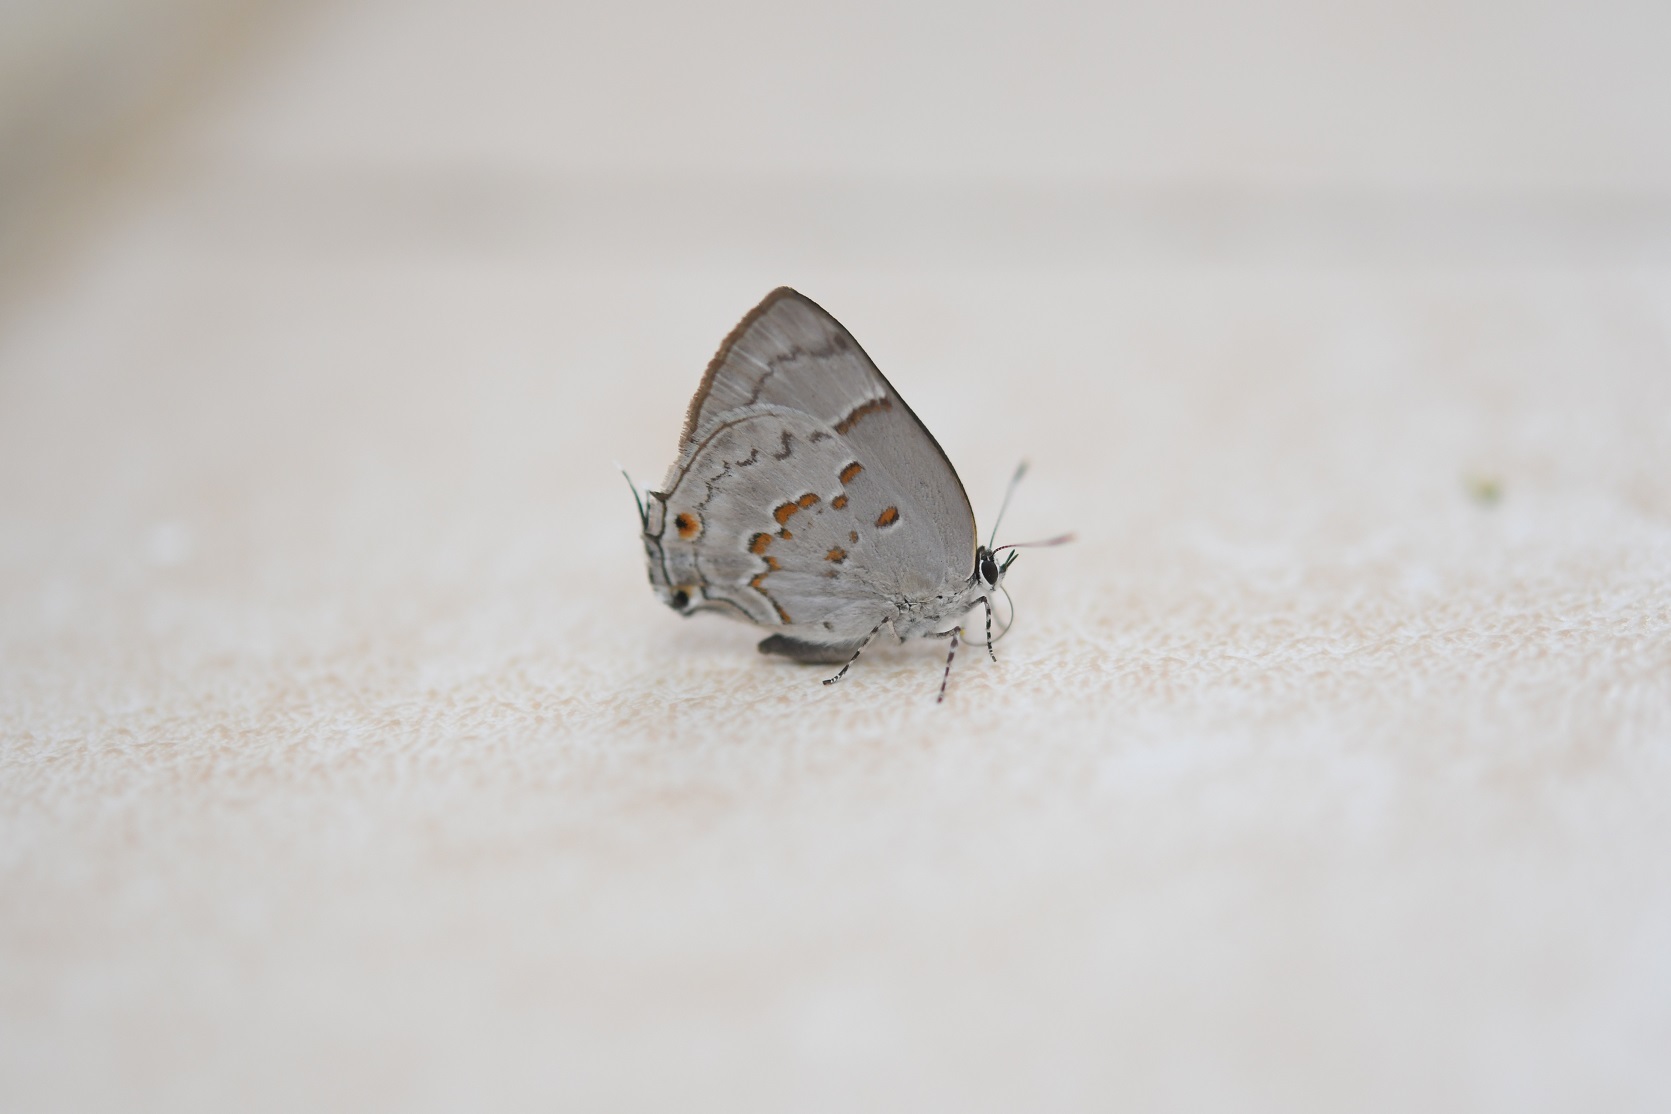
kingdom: Animalia
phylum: Arthropoda
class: Insecta
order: Lepidoptera
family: Lycaenidae
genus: Tmolus
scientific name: Tmolus echion
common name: Red-spotted hairstreak
